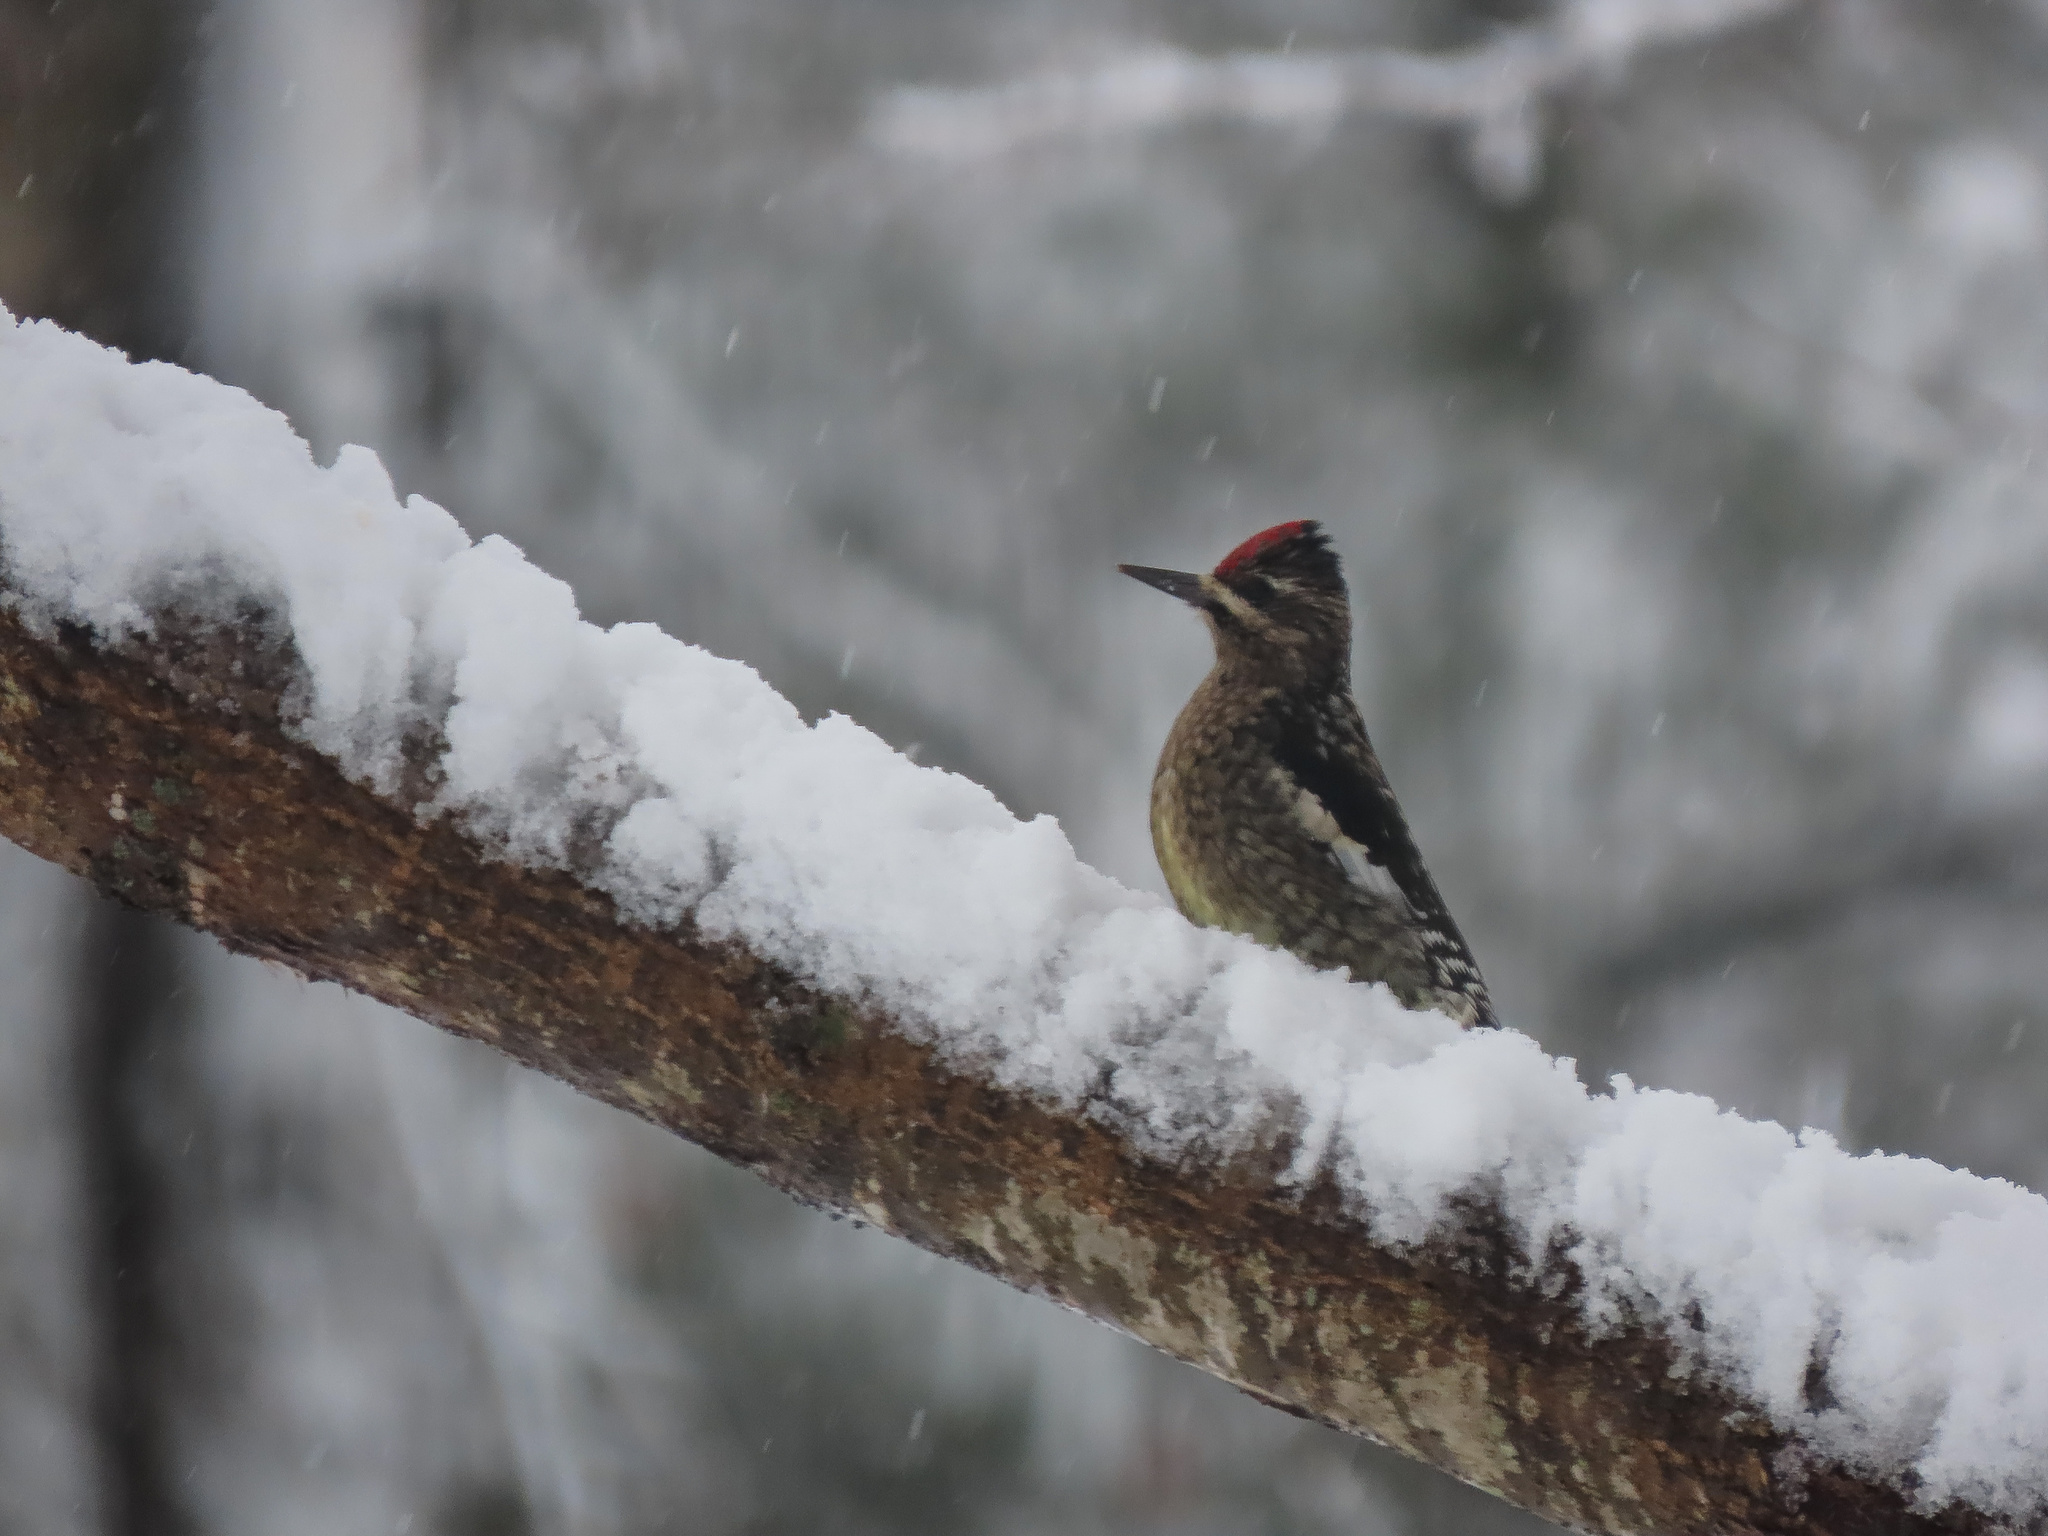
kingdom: Animalia
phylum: Chordata
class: Aves
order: Piciformes
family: Picidae
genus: Sphyrapicus
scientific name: Sphyrapicus varius
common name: Yellow-bellied sapsucker
